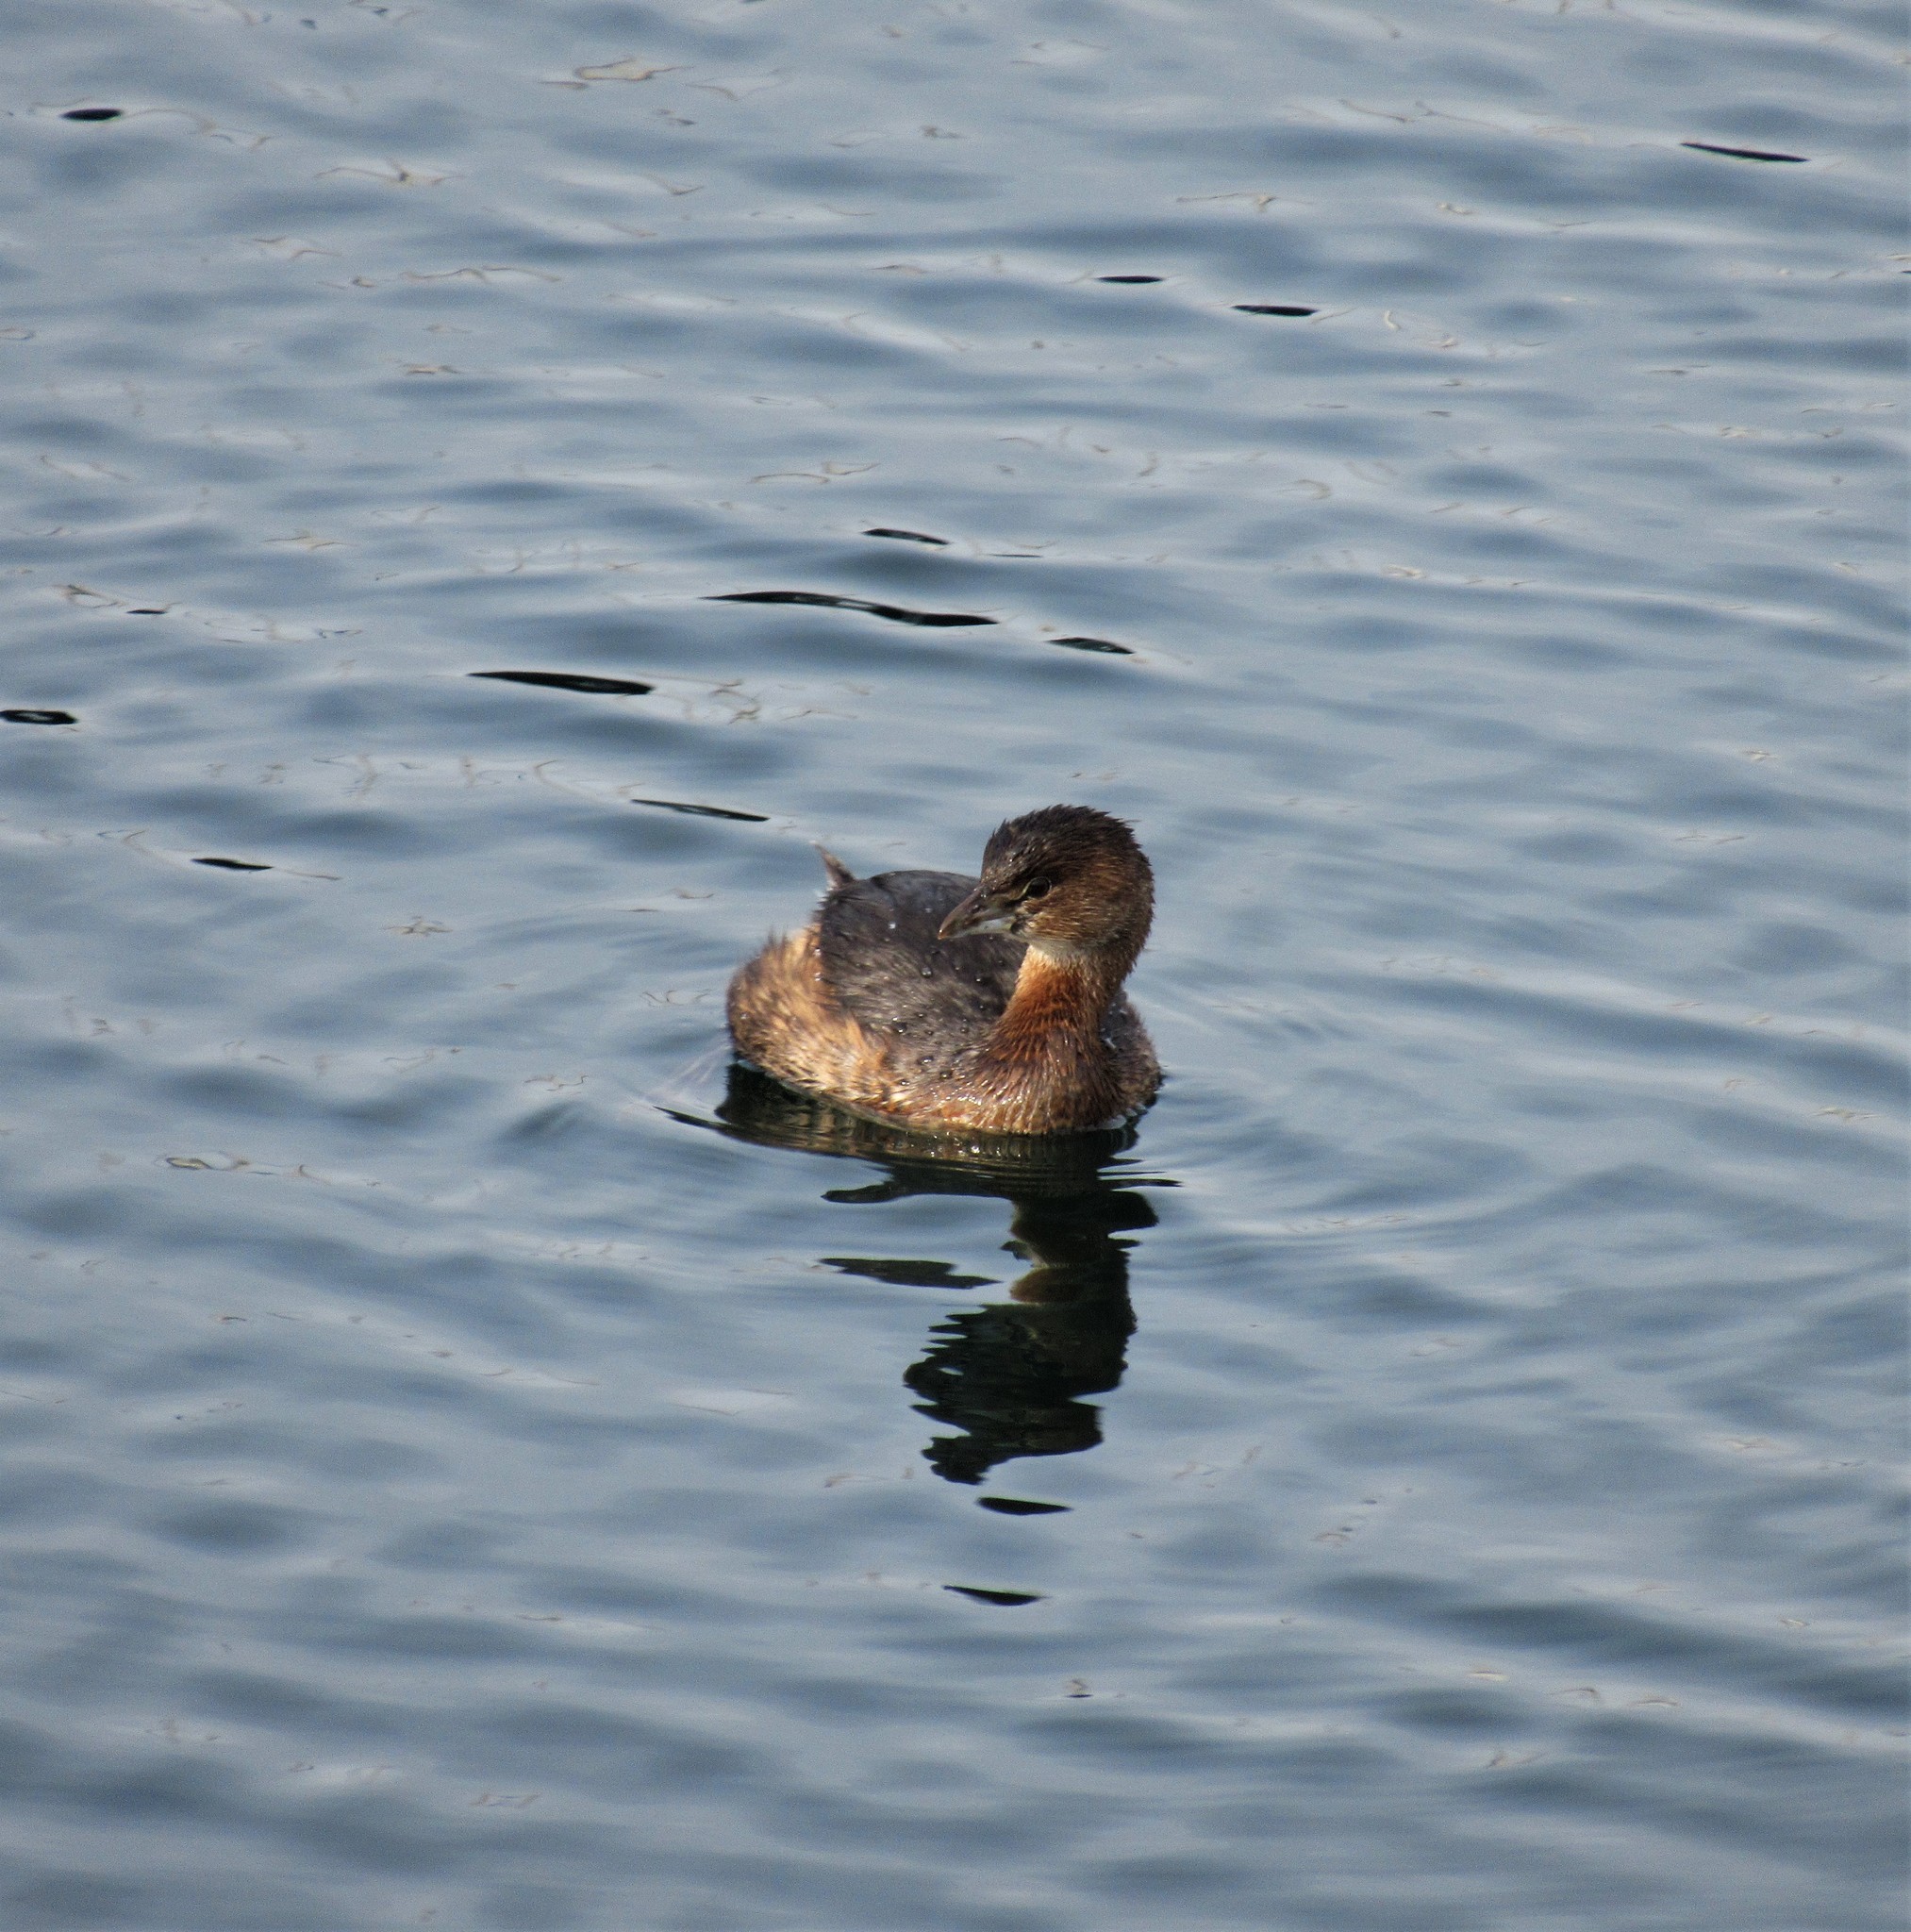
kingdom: Animalia
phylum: Chordata
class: Aves
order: Podicipediformes
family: Podicipedidae
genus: Podilymbus
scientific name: Podilymbus podiceps
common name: Pied-billed grebe
